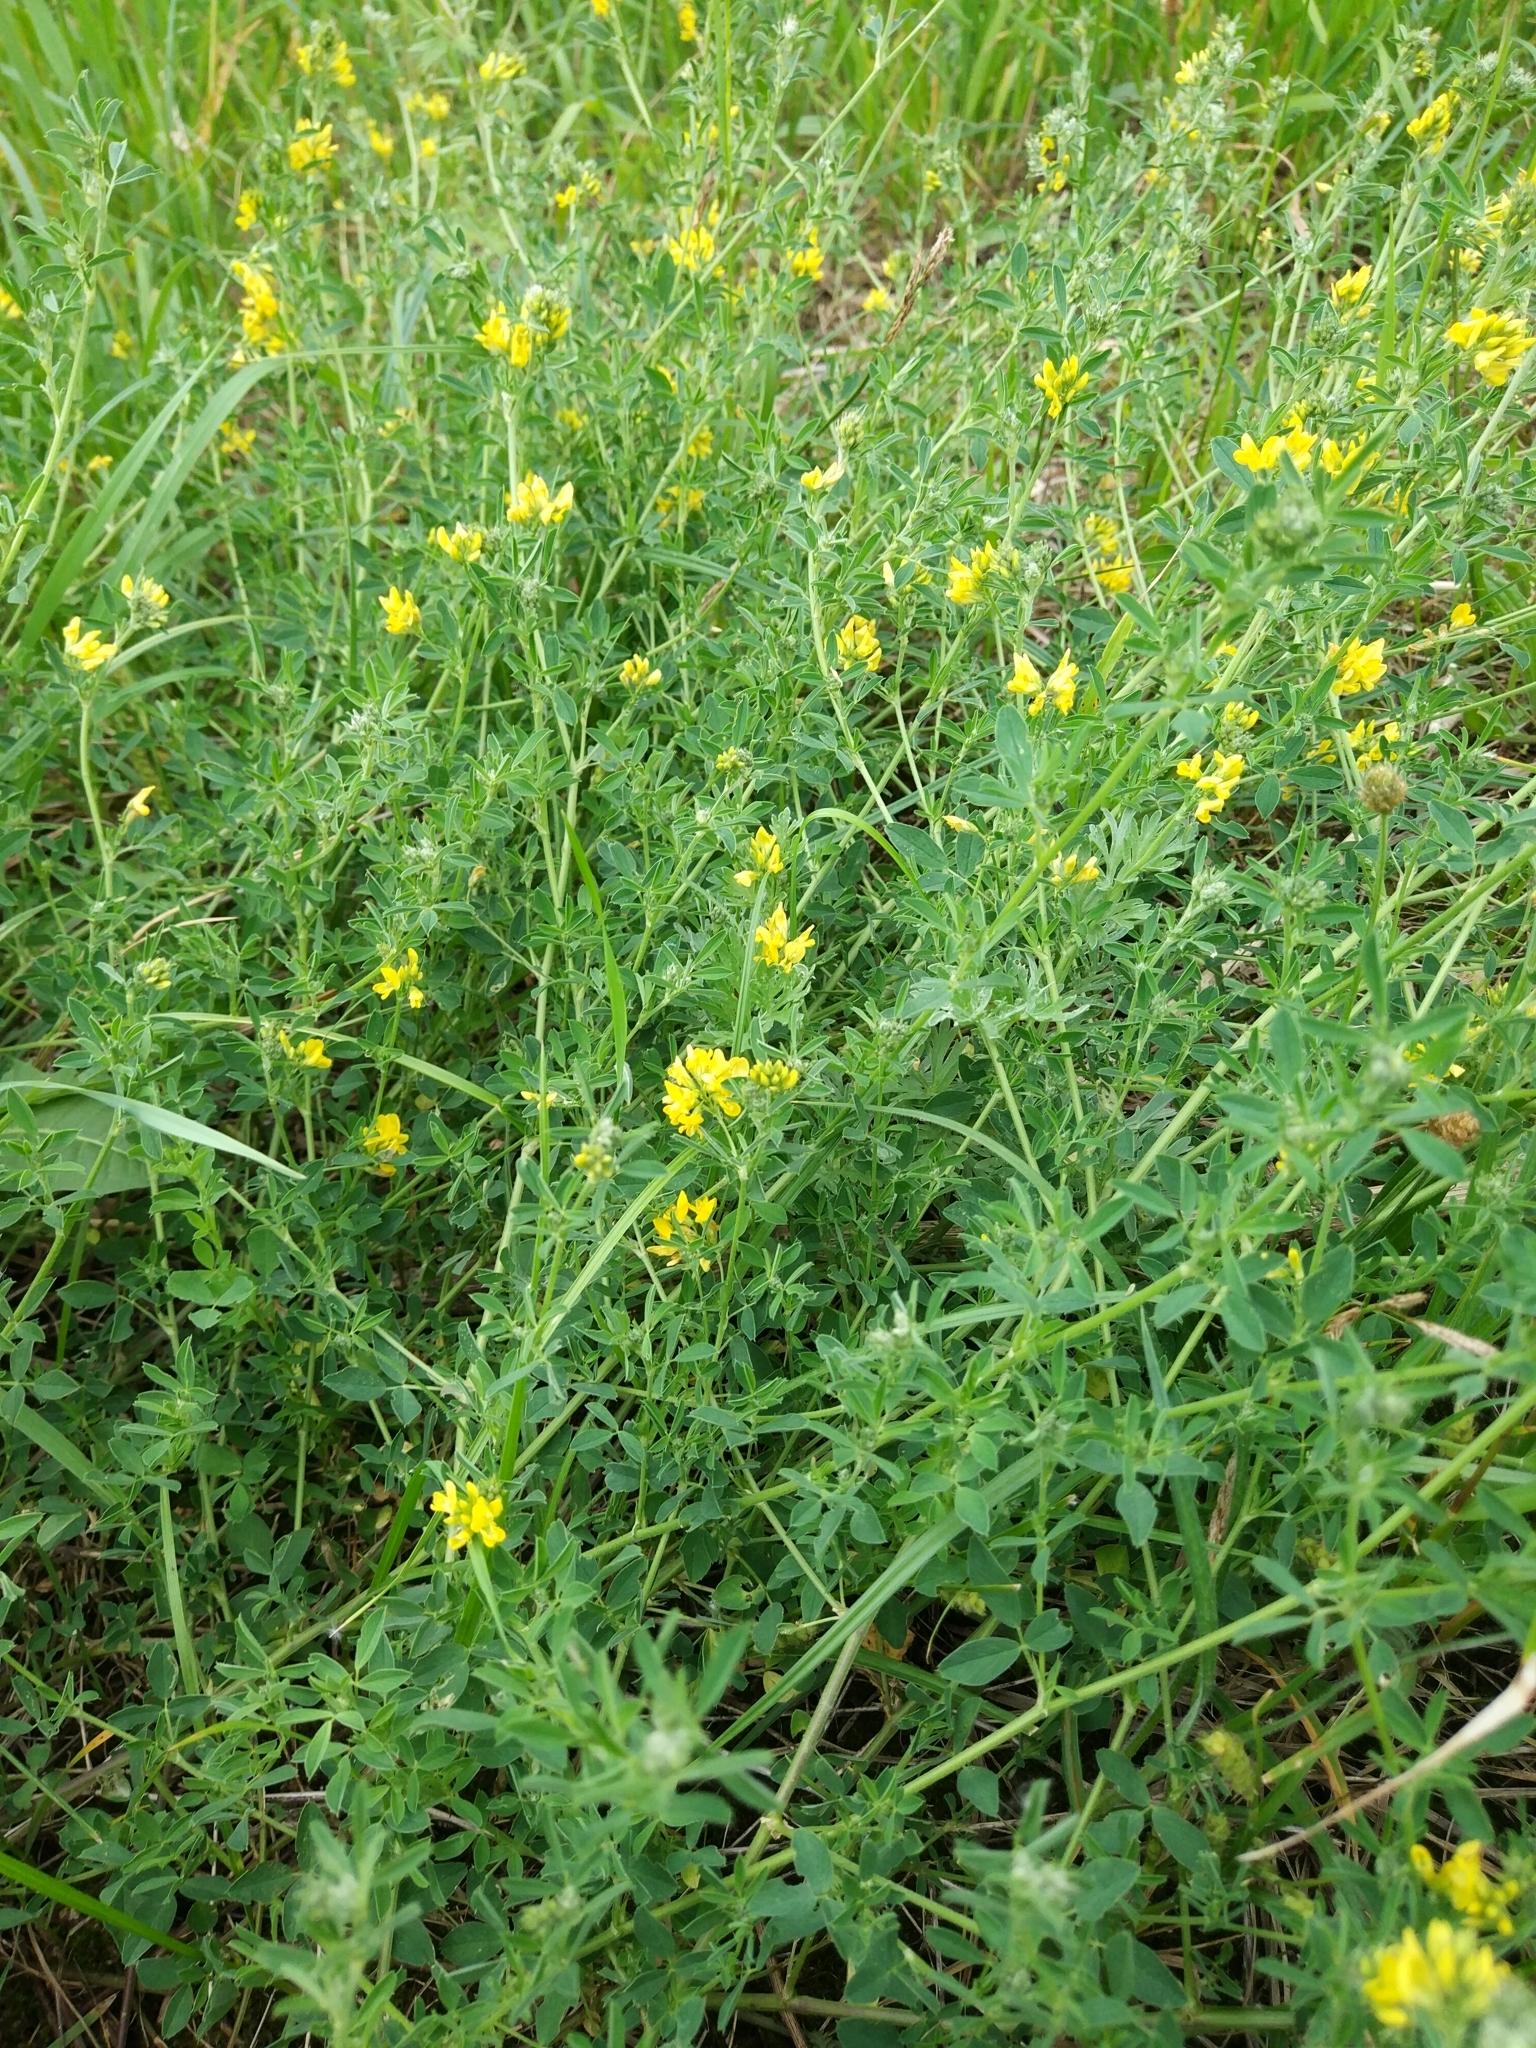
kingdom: Plantae
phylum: Tracheophyta
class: Magnoliopsida
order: Fabales
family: Fabaceae
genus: Medicago
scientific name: Medicago falcata
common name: Sickle medick
